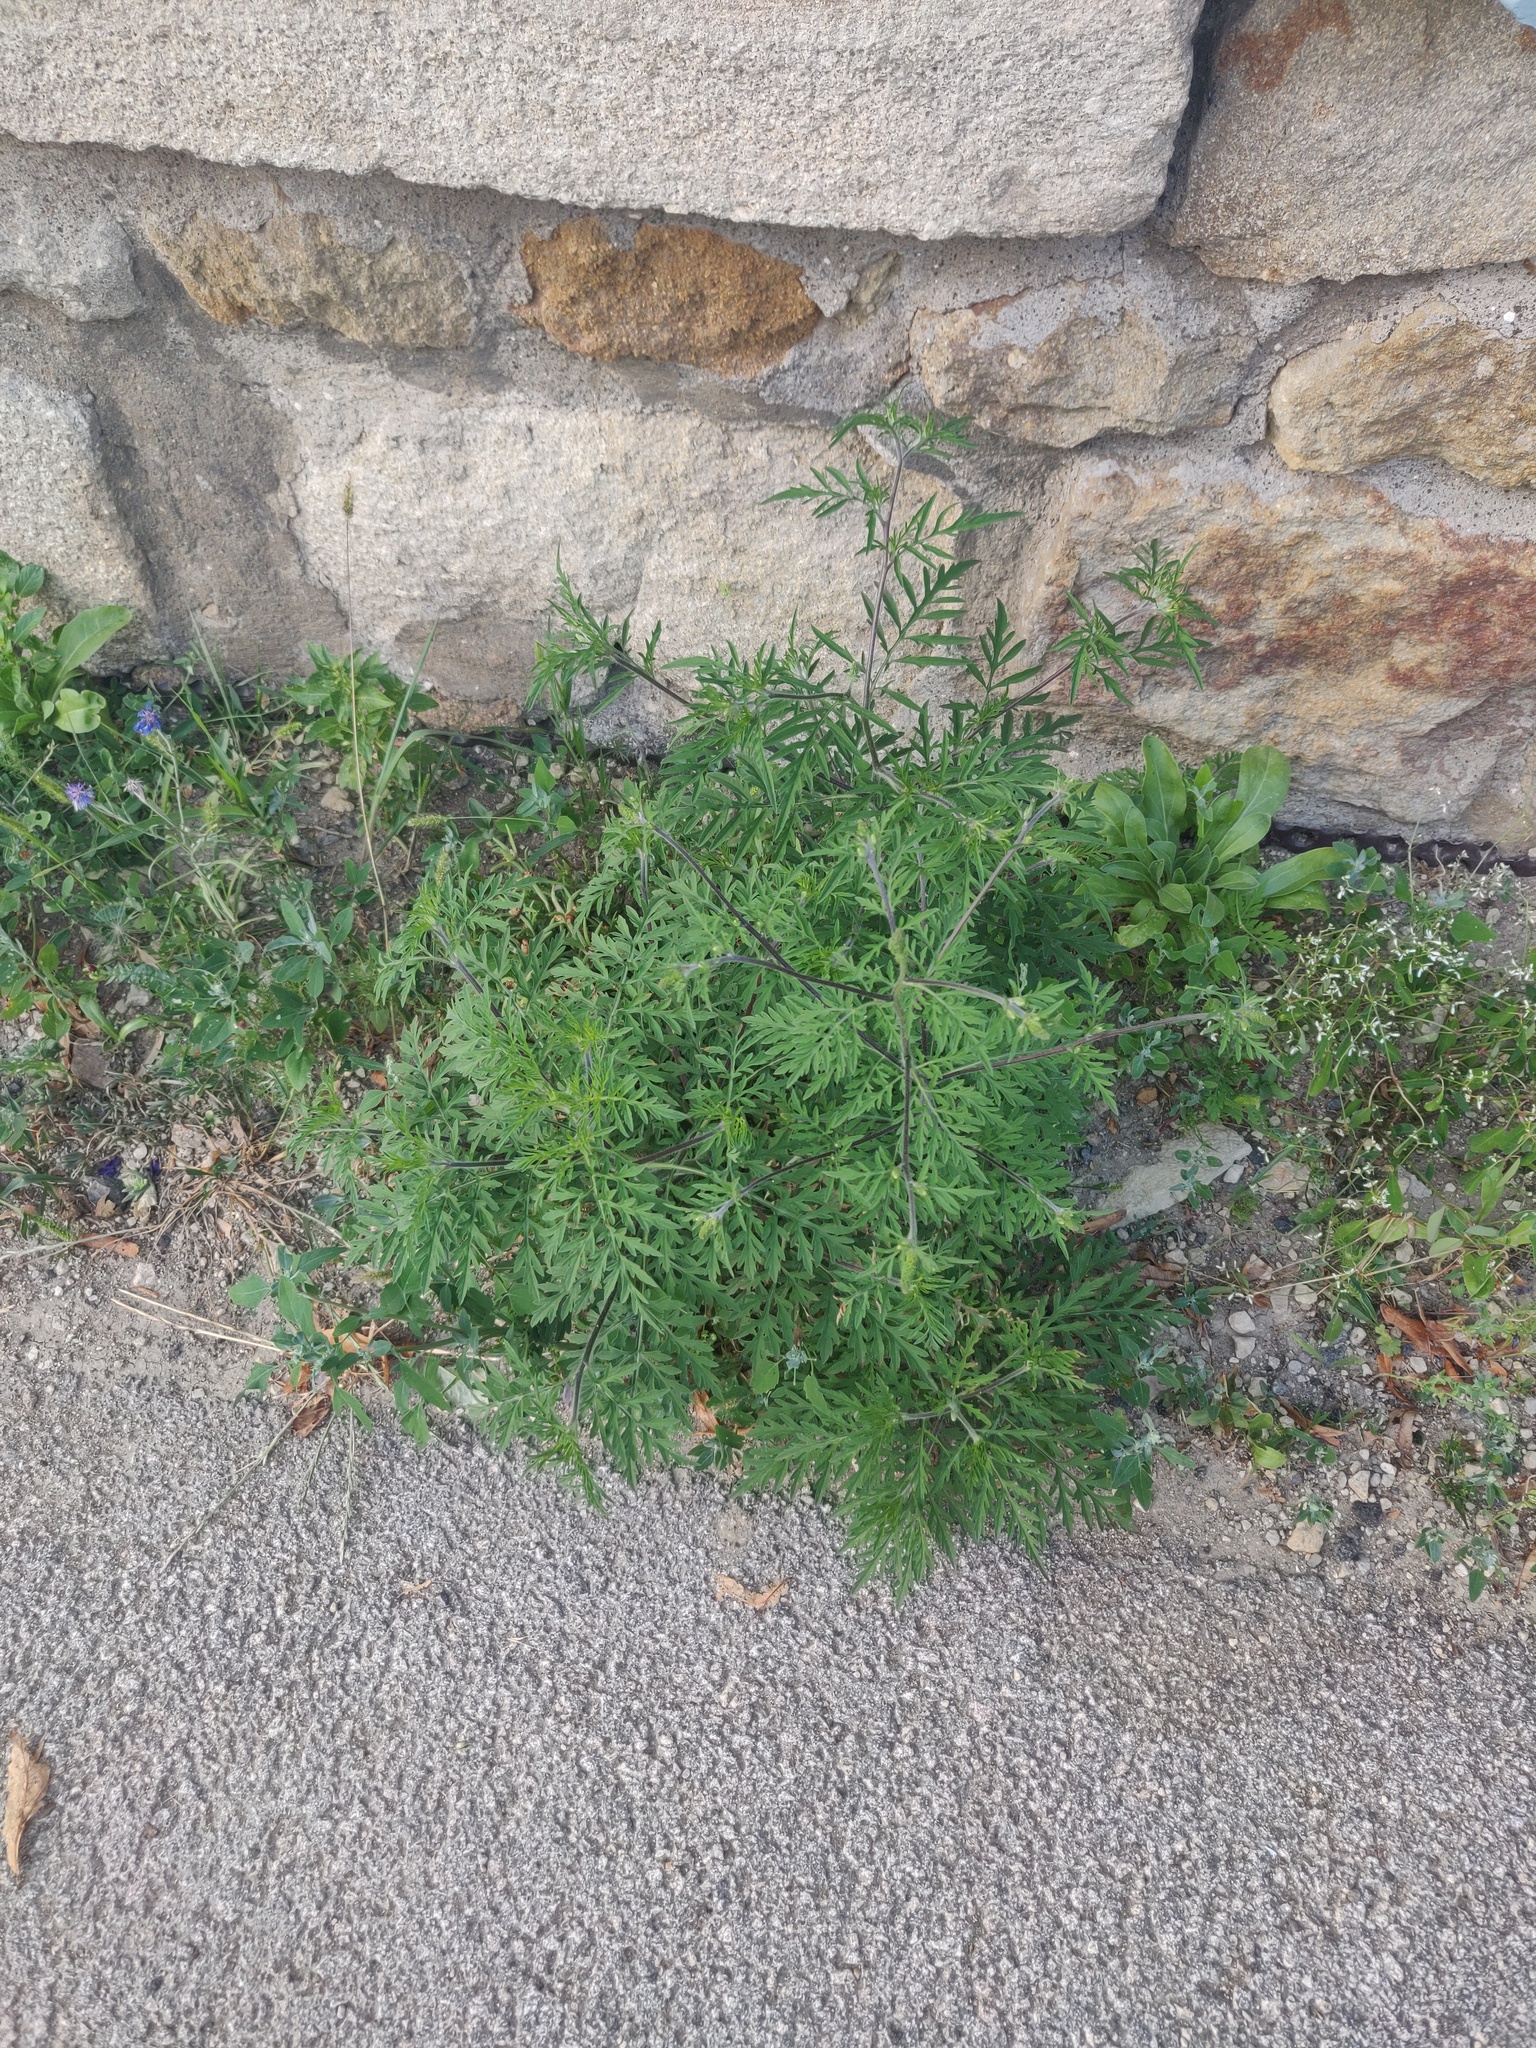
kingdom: Plantae
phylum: Tracheophyta
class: Magnoliopsida
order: Asterales
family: Asteraceae
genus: Ambrosia
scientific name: Ambrosia artemisiifolia
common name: Annual ragweed
